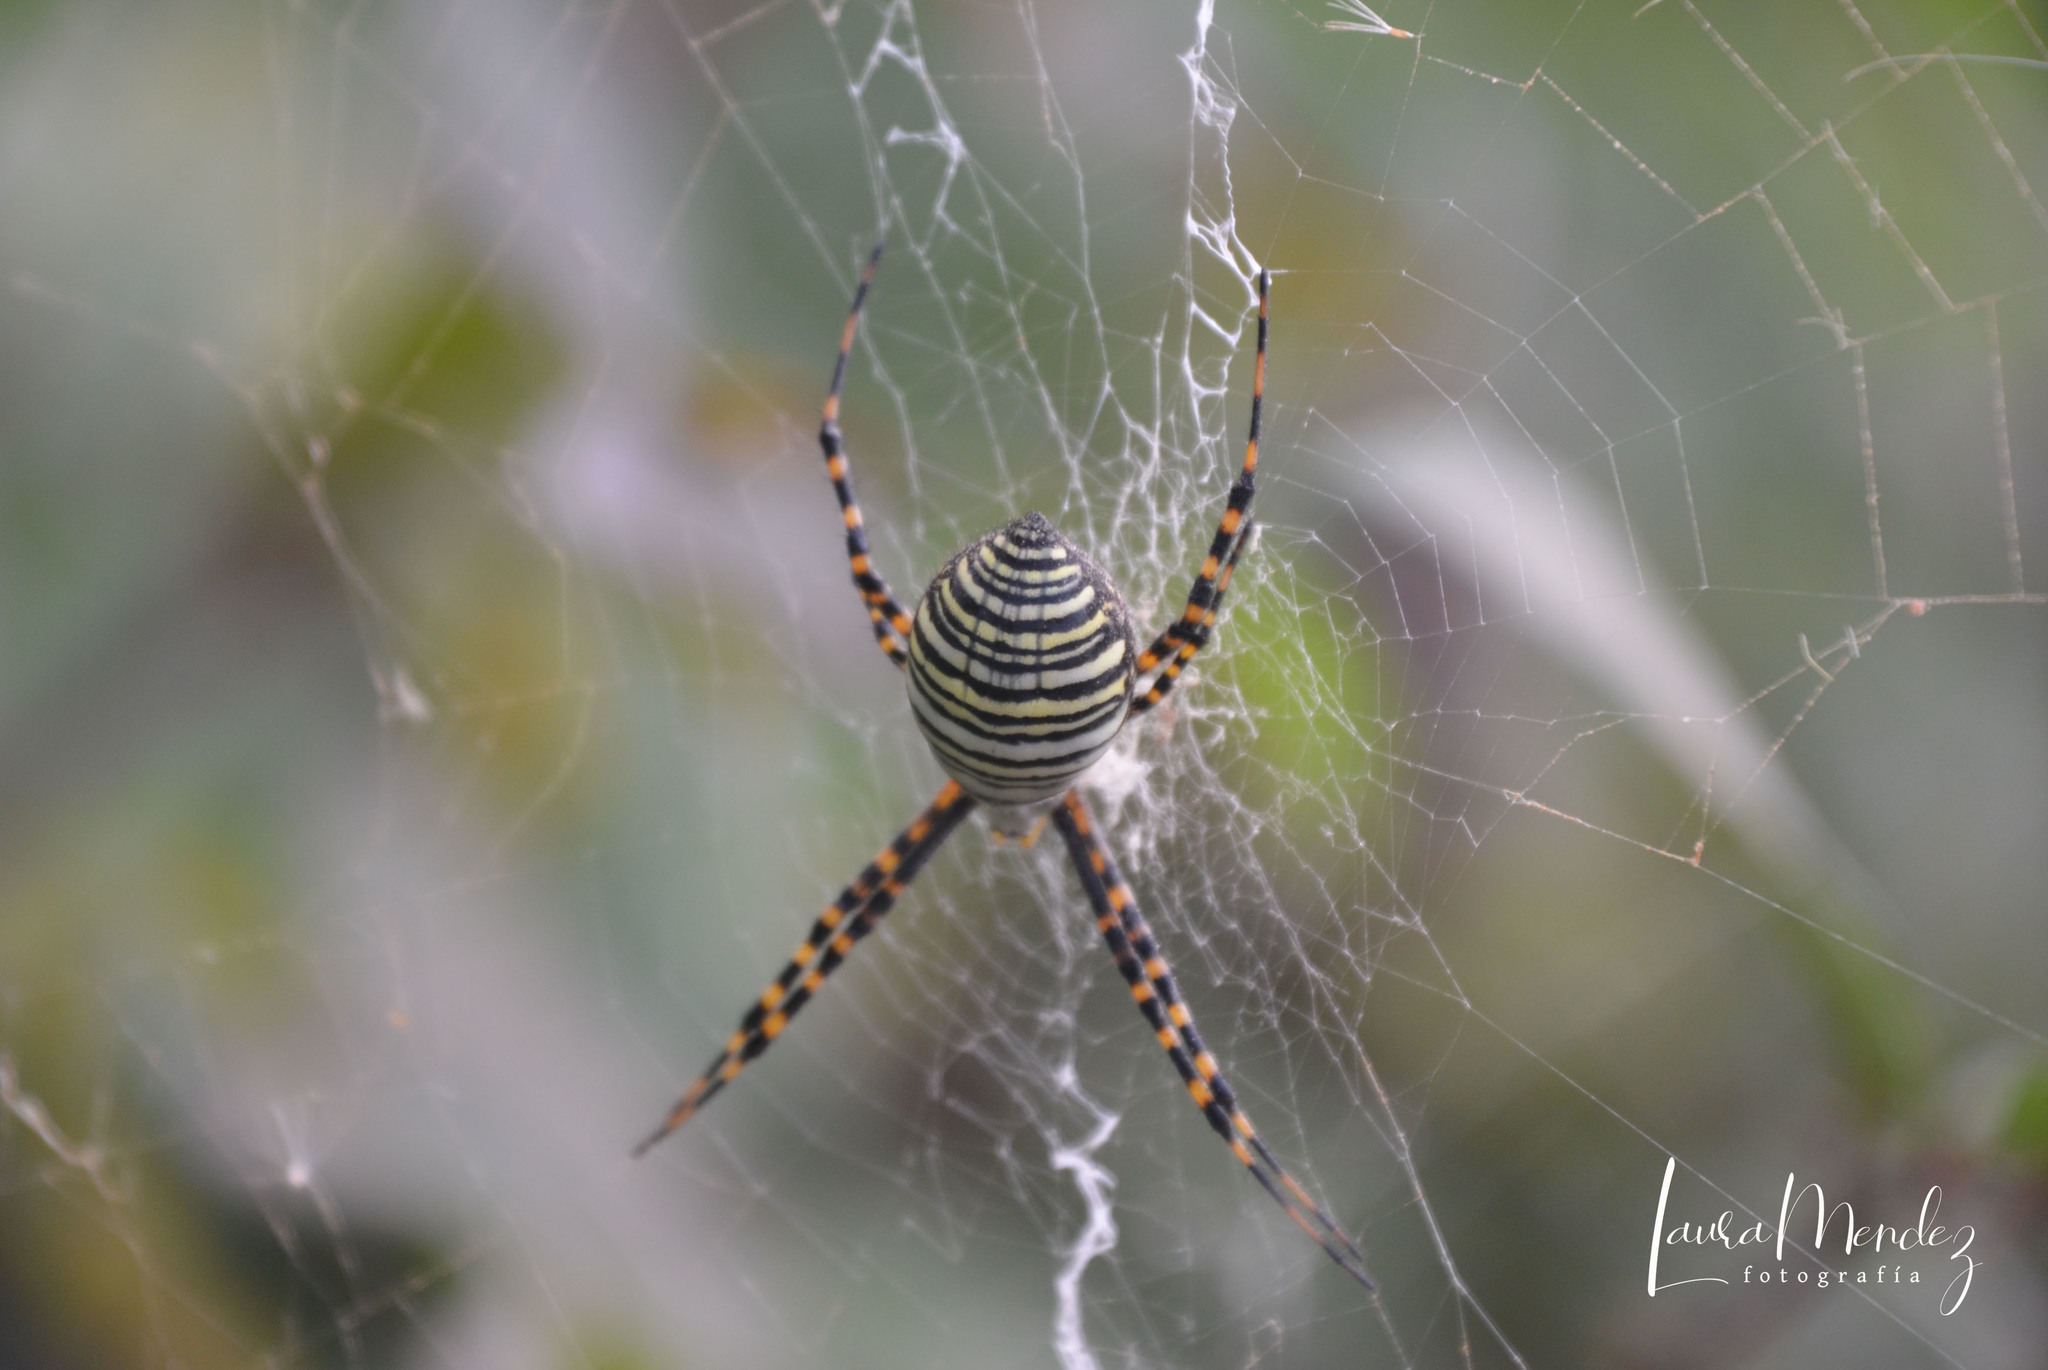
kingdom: Animalia
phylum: Arthropoda
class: Arachnida
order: Araneae
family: Araneidae
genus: Argiope
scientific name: Argiope trifasciata
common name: Banded garden spider
